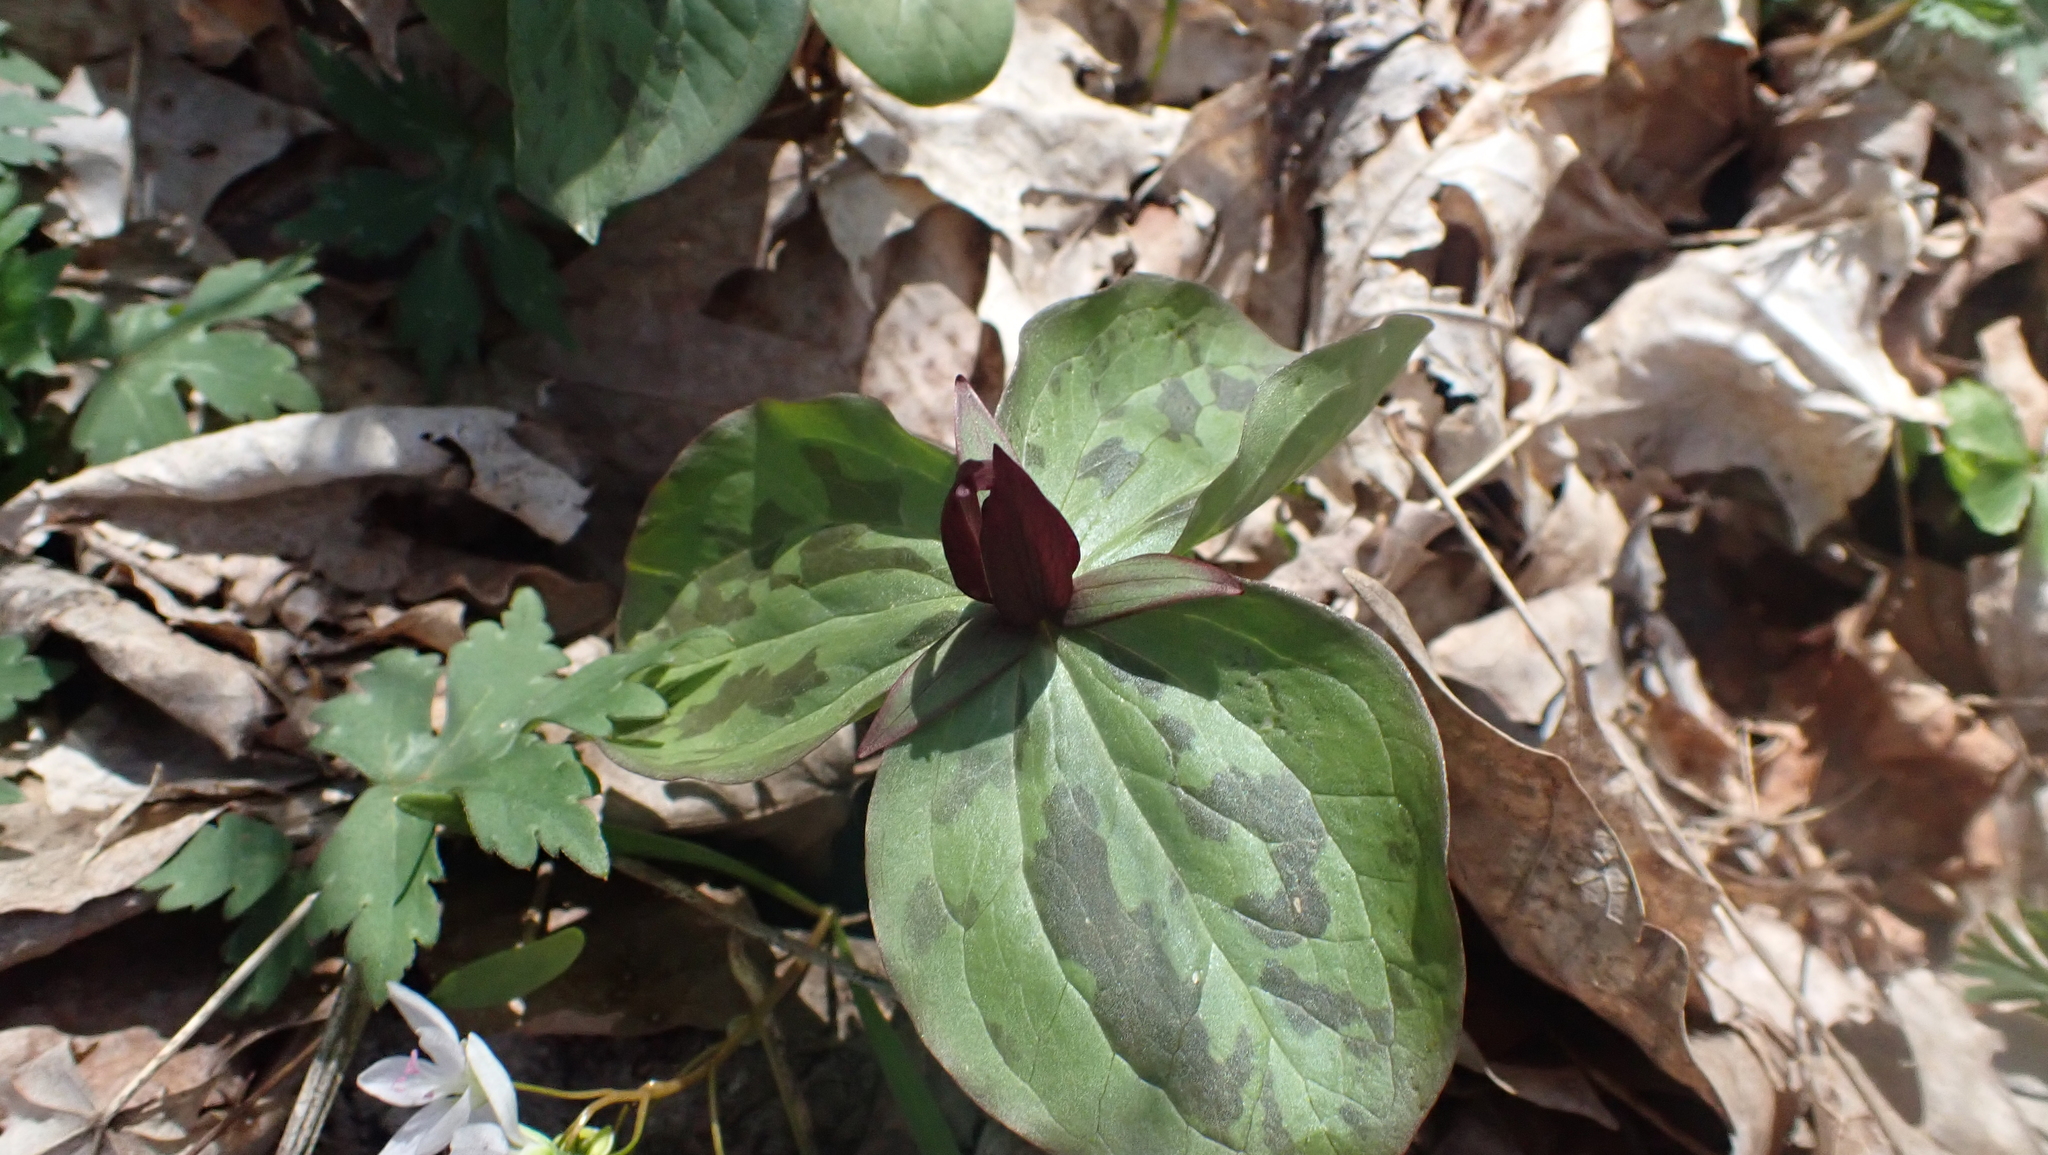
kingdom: Plantae
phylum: Tracheophyta
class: Liliopsida
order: Liliales
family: Melanthiaceae
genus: Trillium
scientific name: Trillium sessile
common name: Sessile trillium
